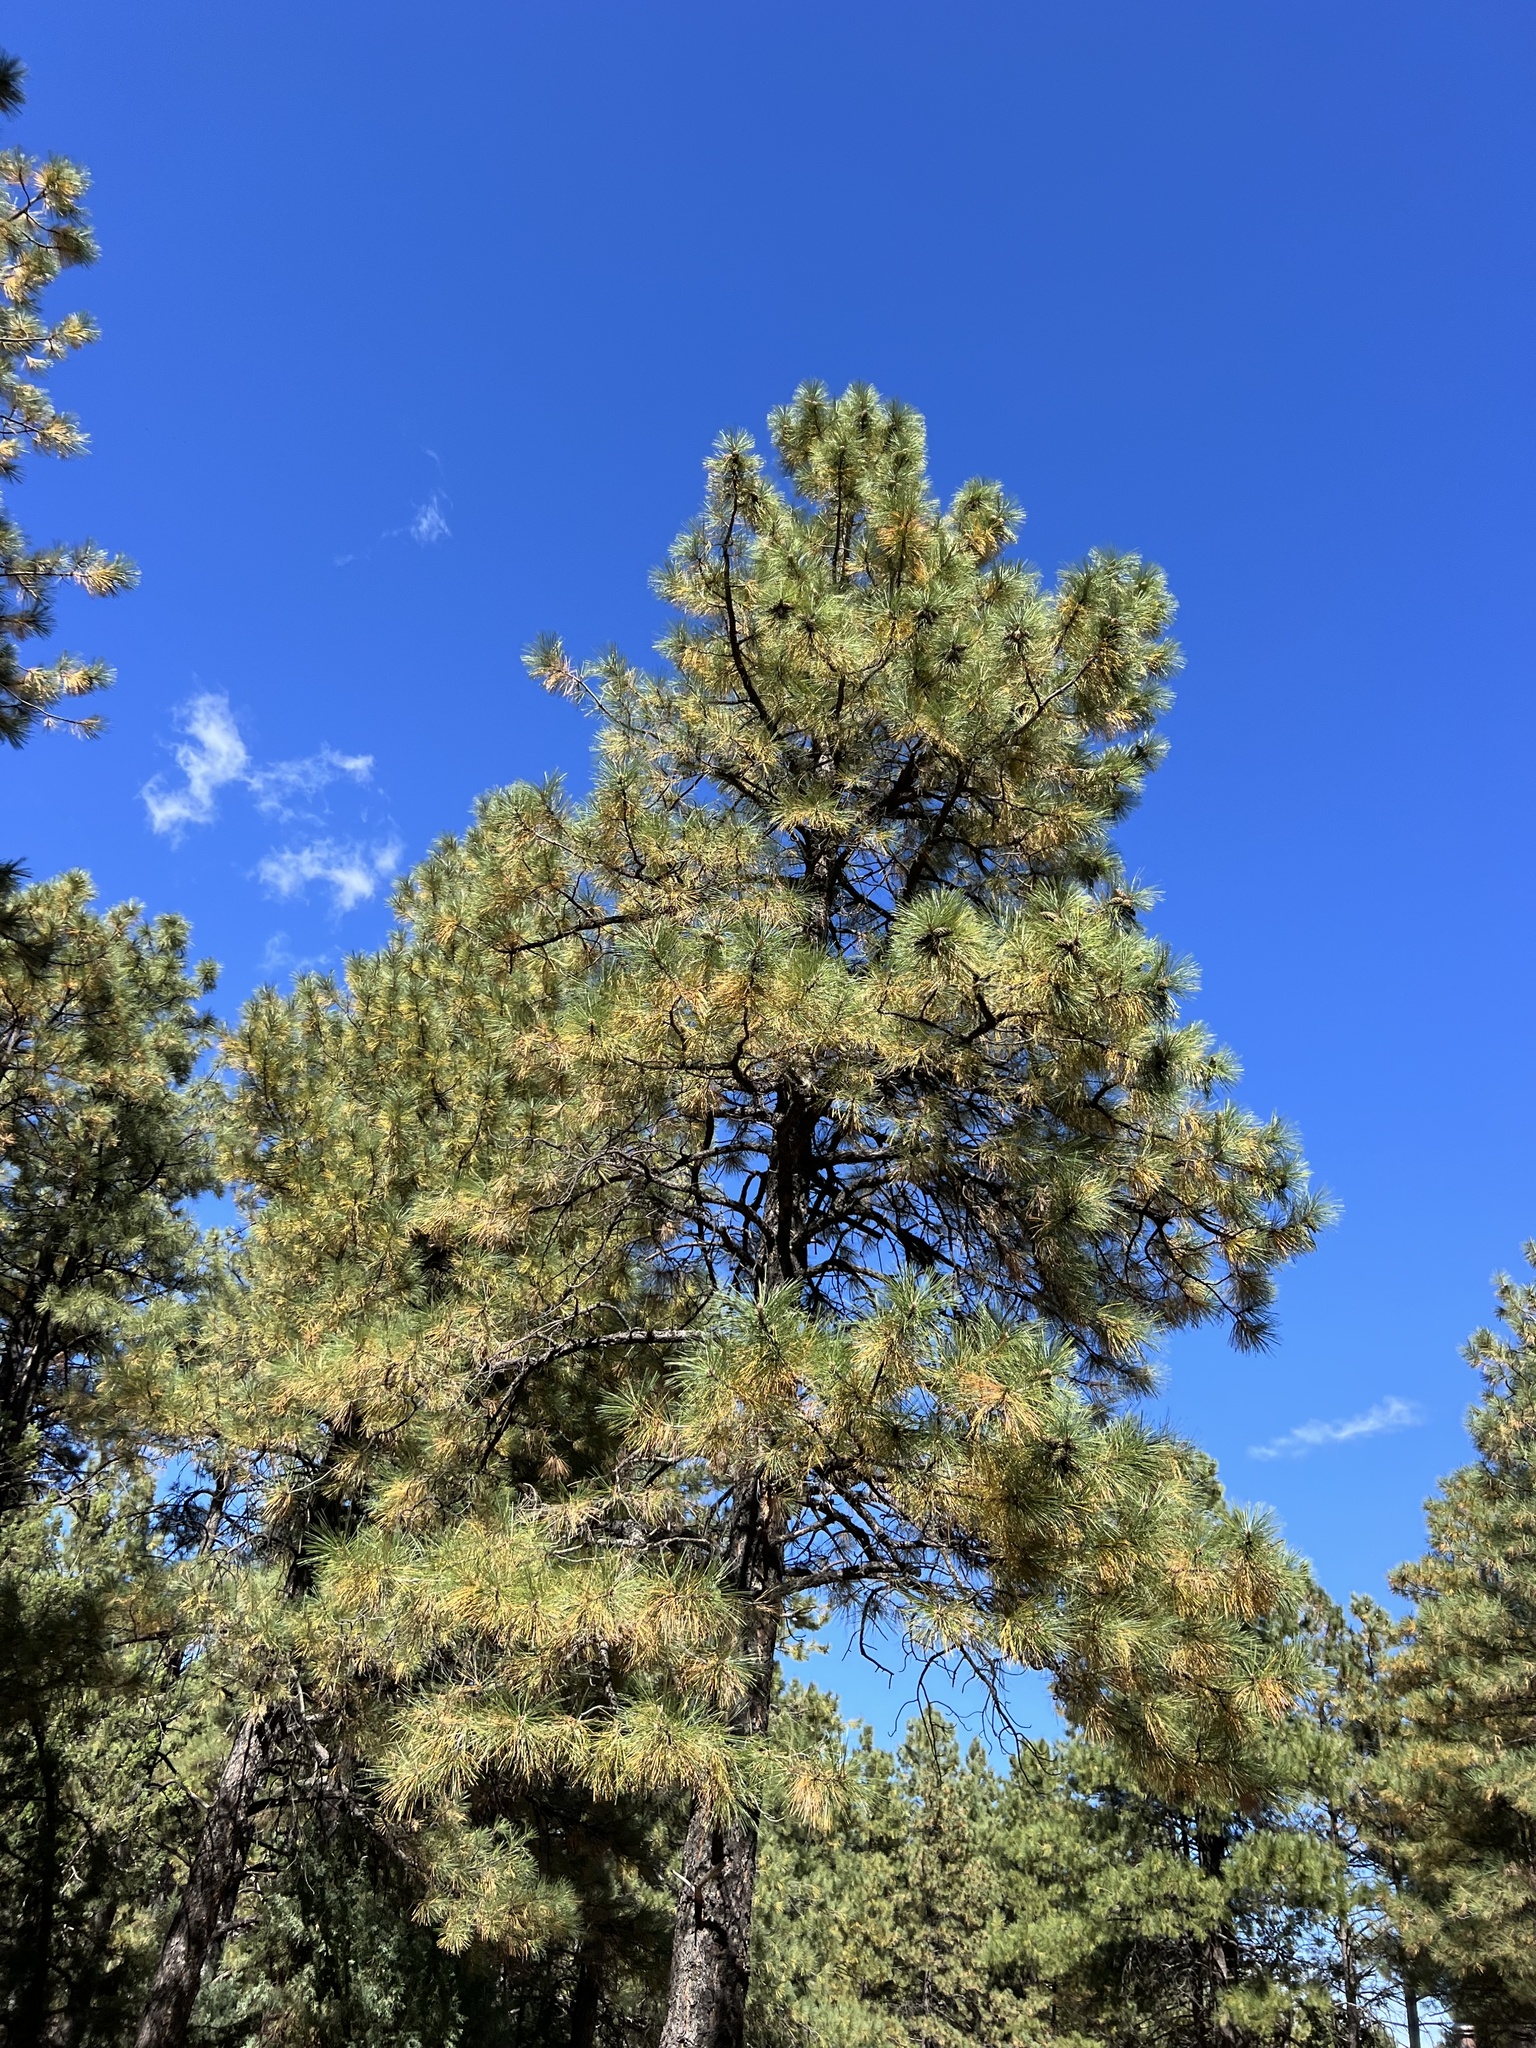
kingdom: Plantae
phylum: Tracheophyta
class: Pinopsida
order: Pinales
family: Pinaceae
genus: Pinus
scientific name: Pinus ponderosa
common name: Western yellow-pine
